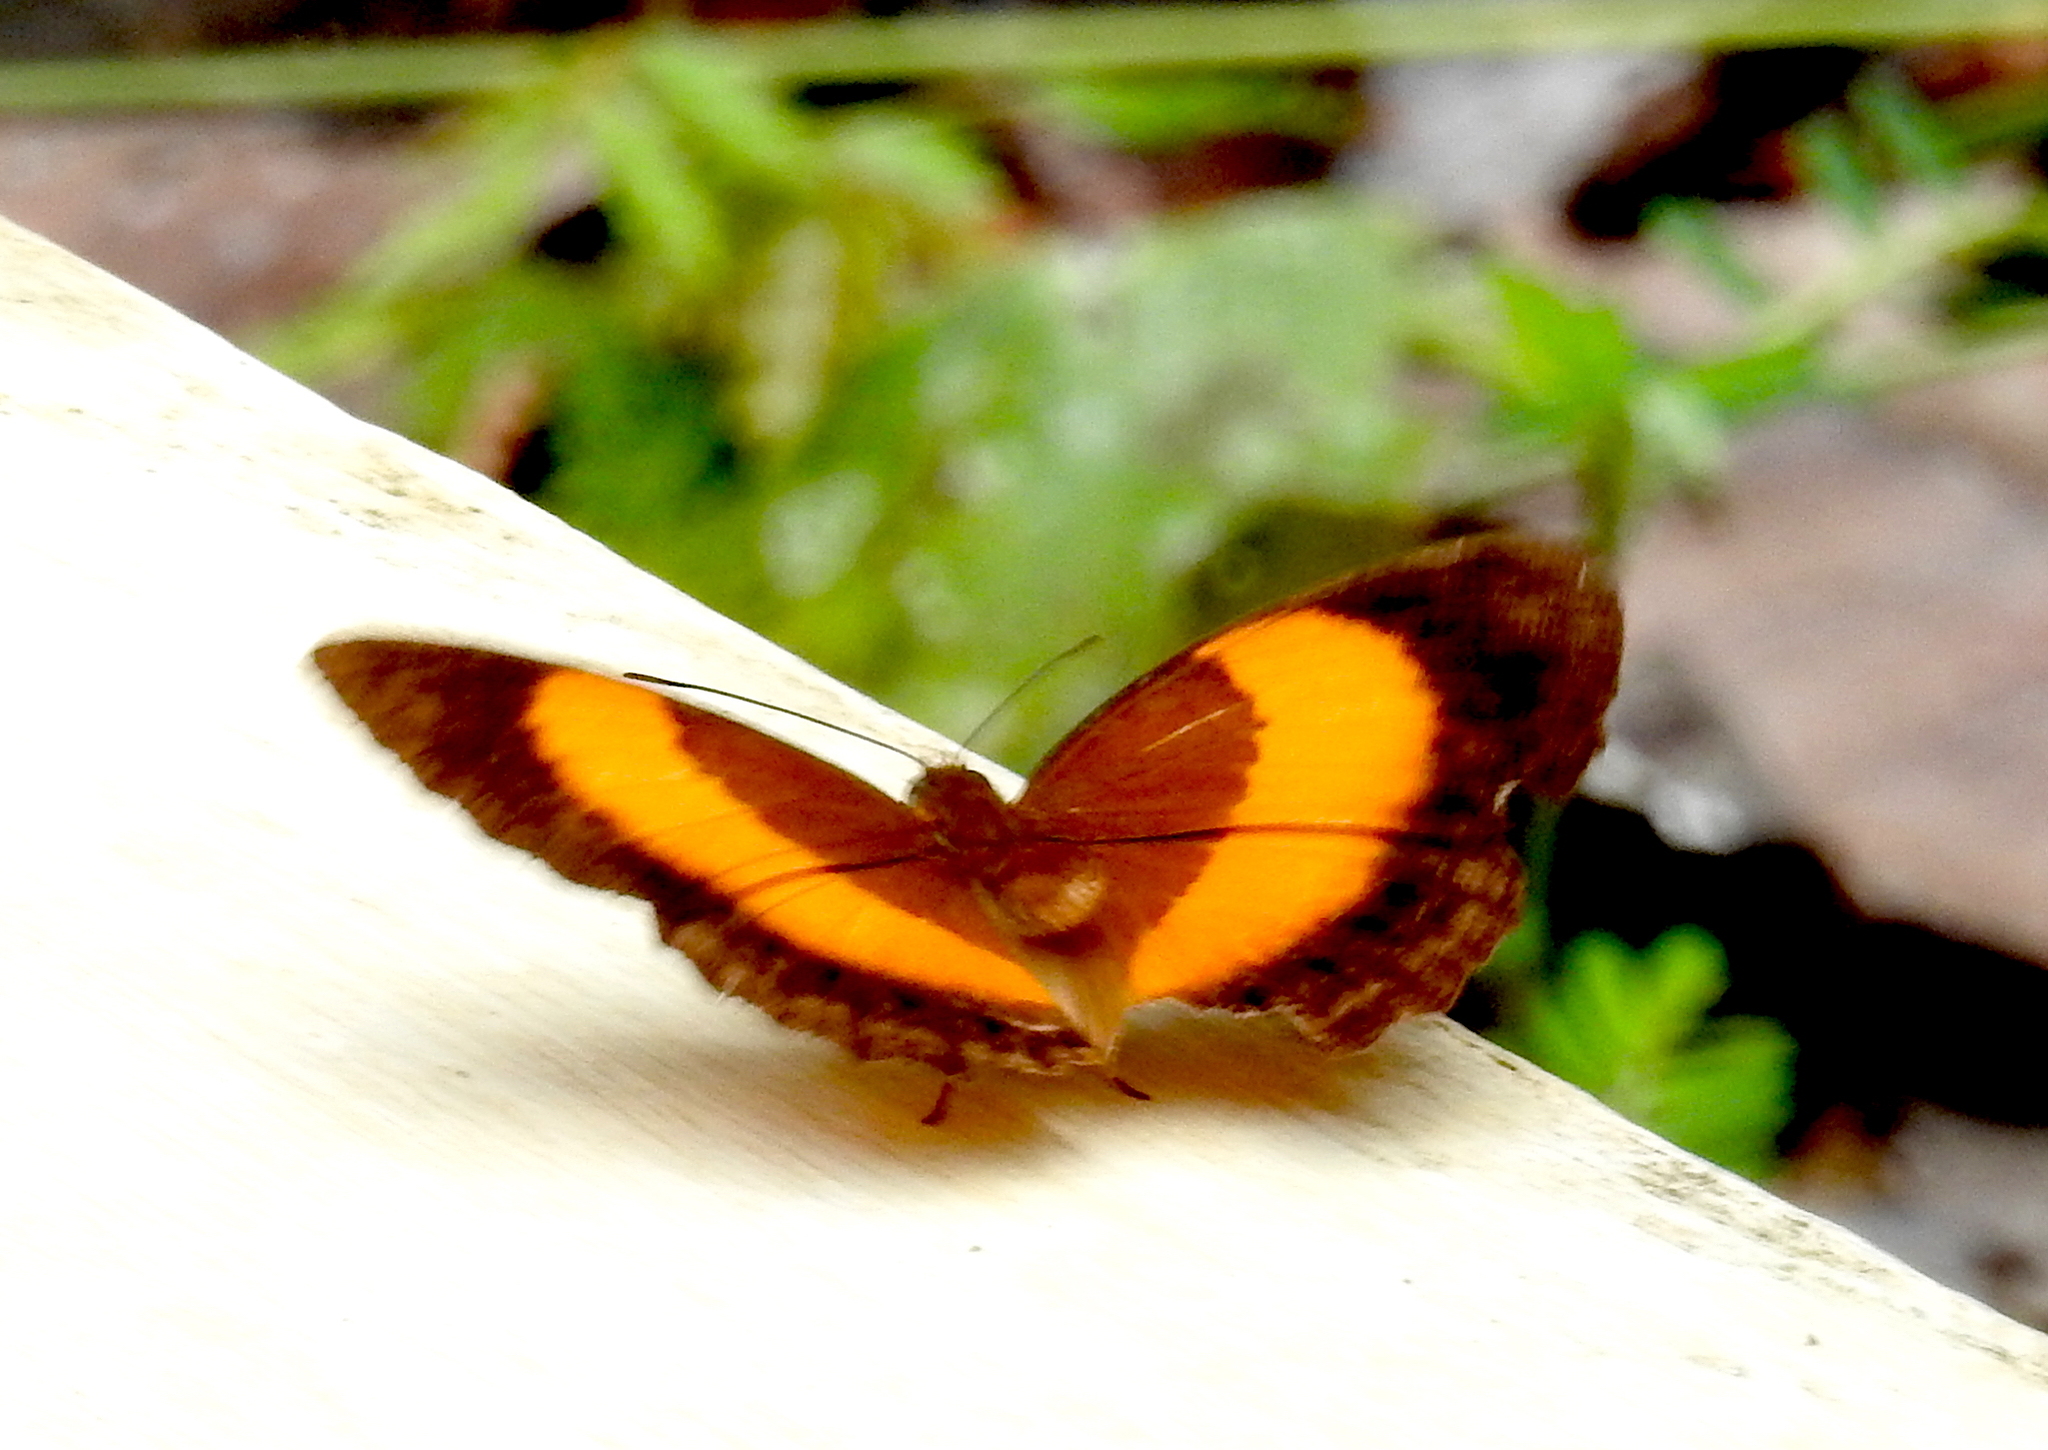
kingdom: Animalia
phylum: Arthropoda
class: Insecta
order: Lepidoptera
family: Nymphalidae
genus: Cupha
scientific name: Cupha prosope
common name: Bordered rustic
